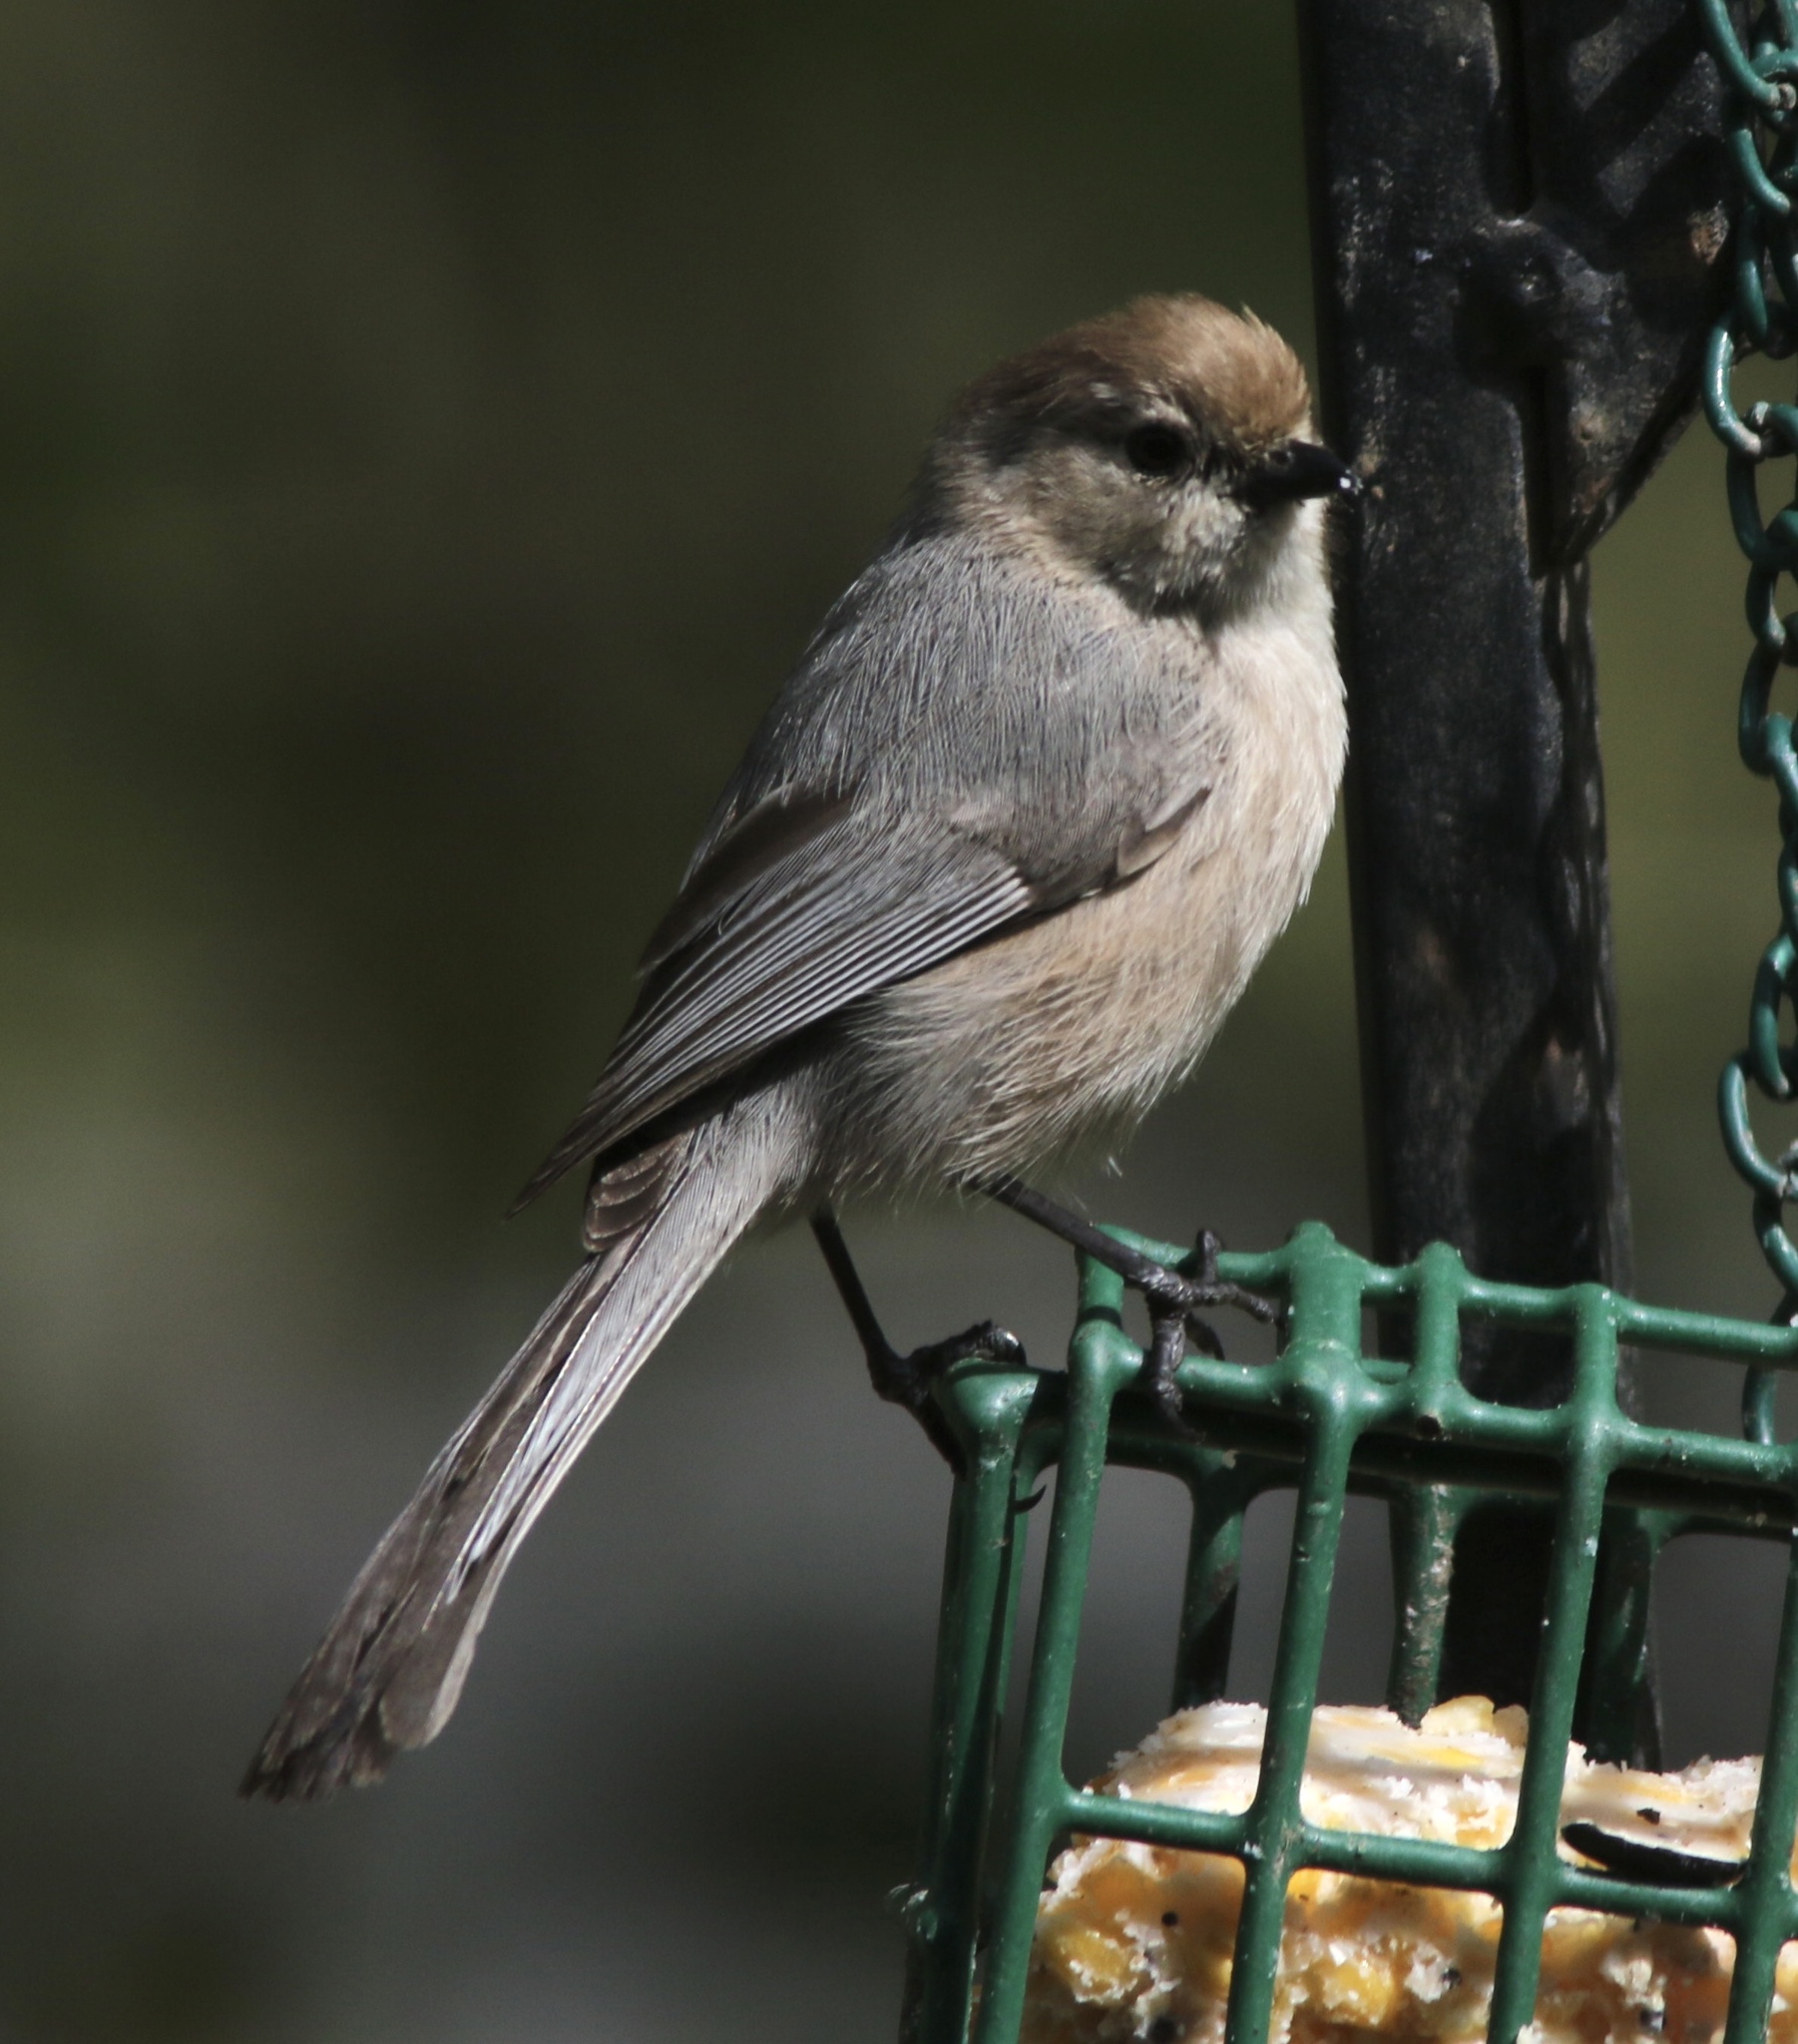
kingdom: Animalia
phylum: Chordata
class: Aves
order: Passeriformes
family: Aegithalidae
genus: Psaltriparus
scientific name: Psaltriparus minimus
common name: American bushtit
